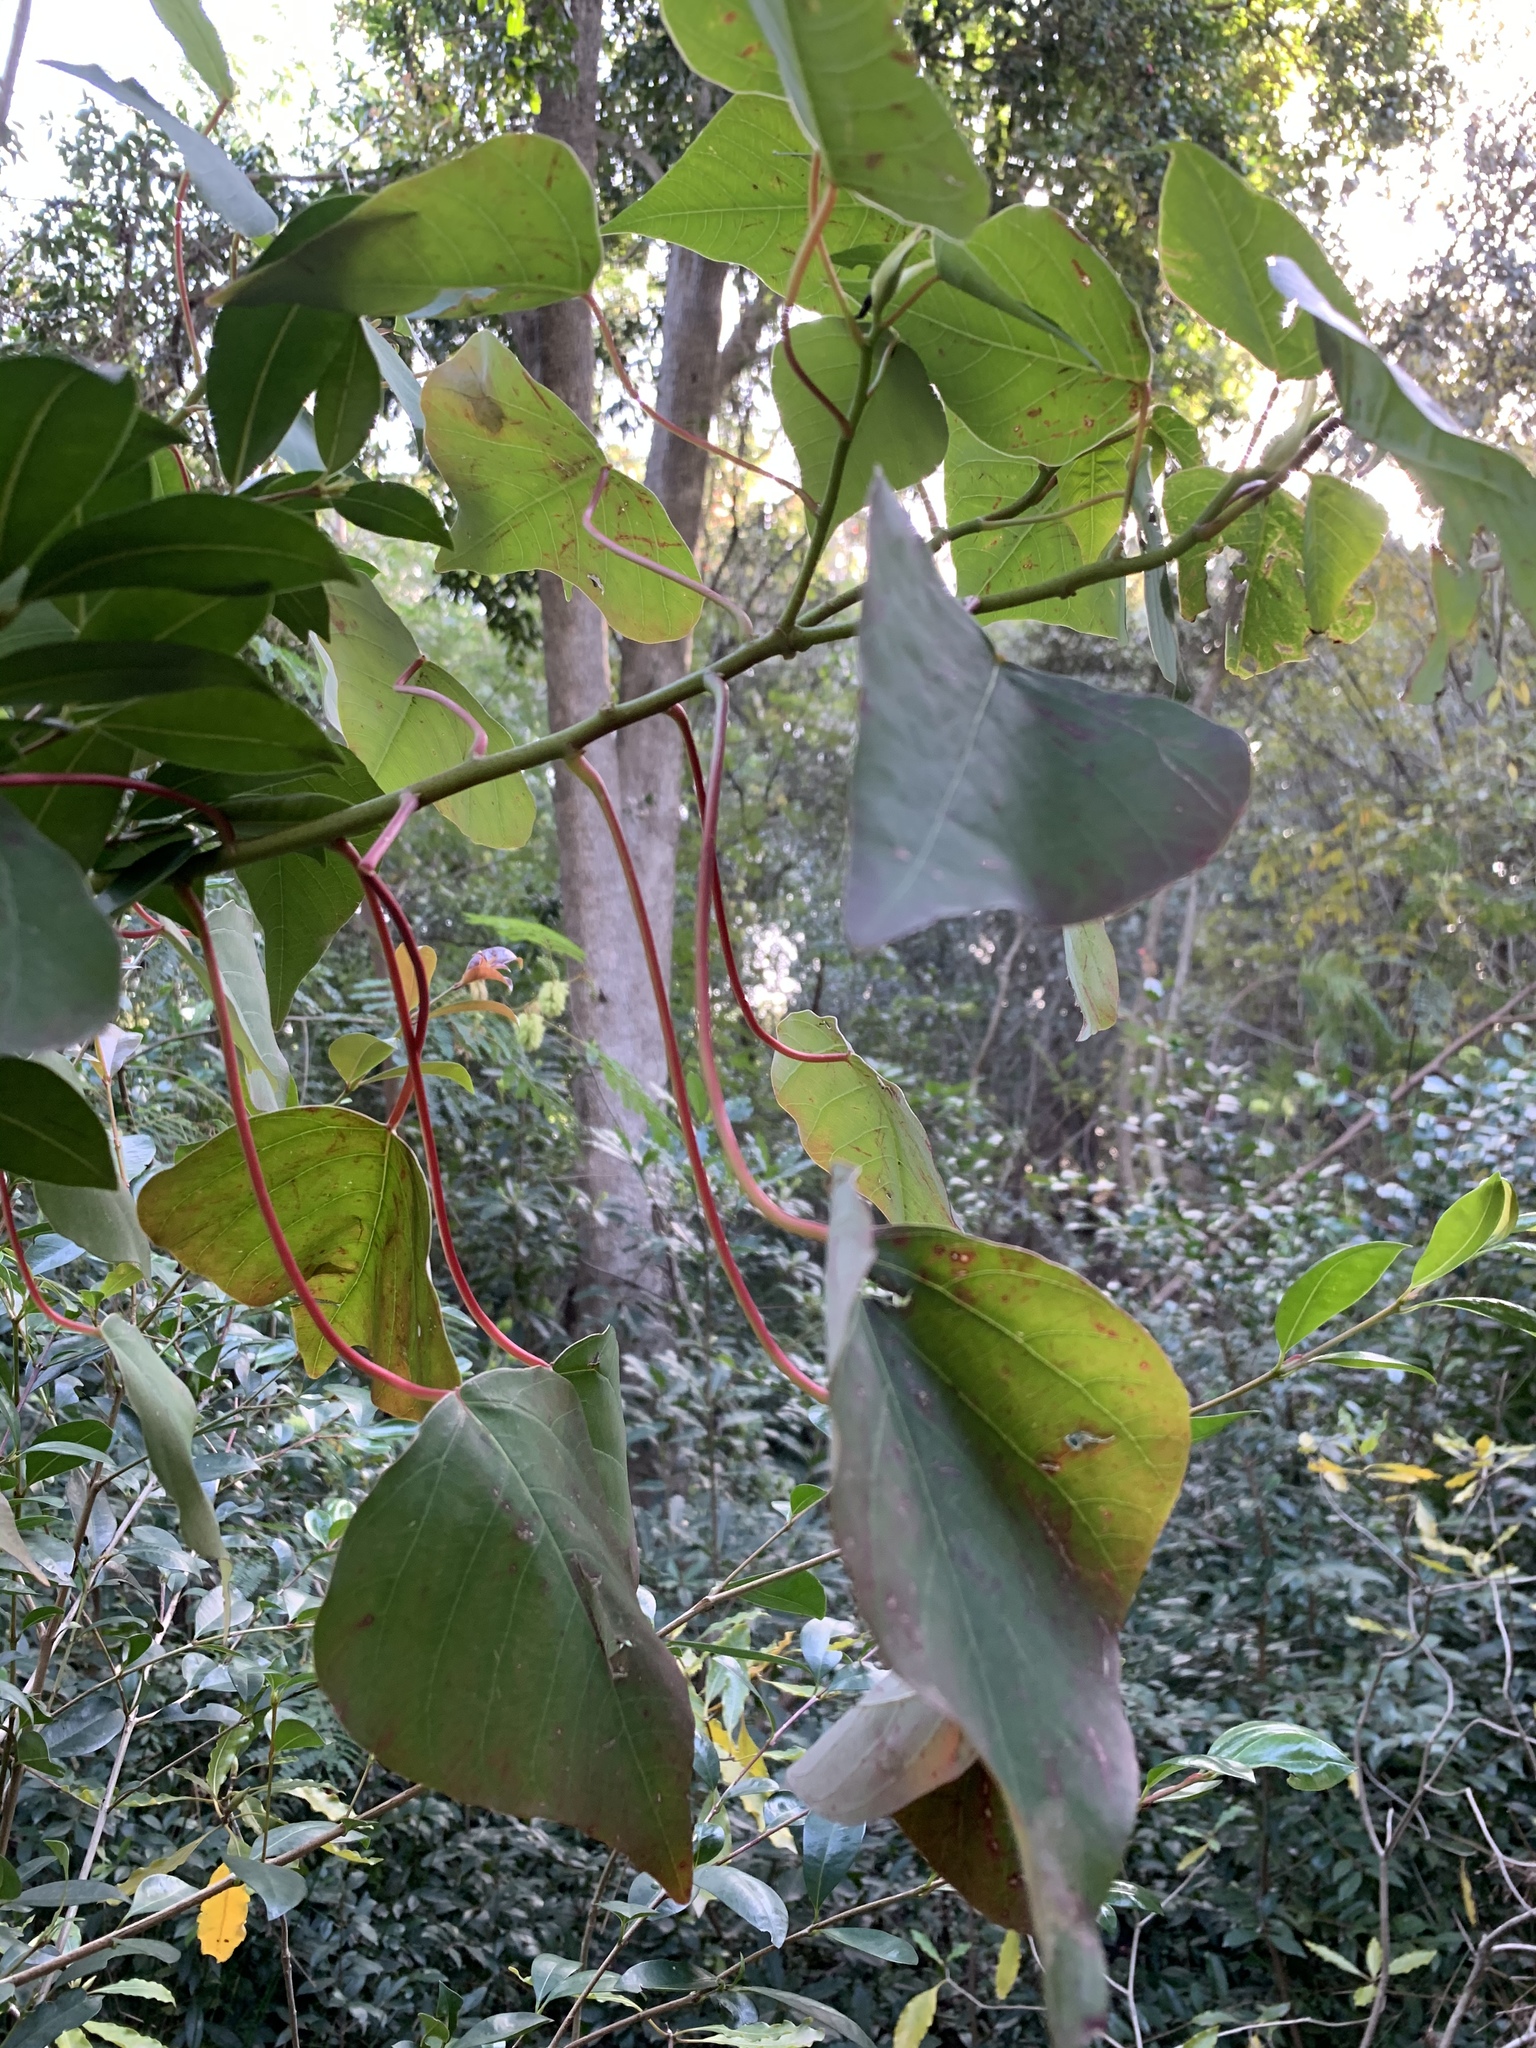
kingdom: Plantae
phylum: Tracheophyta
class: Magnoliopsida
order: Malpighiales
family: Euphorbiaceae
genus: Homalanthus
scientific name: Homalanthus populifolius
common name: Queensland poplar
